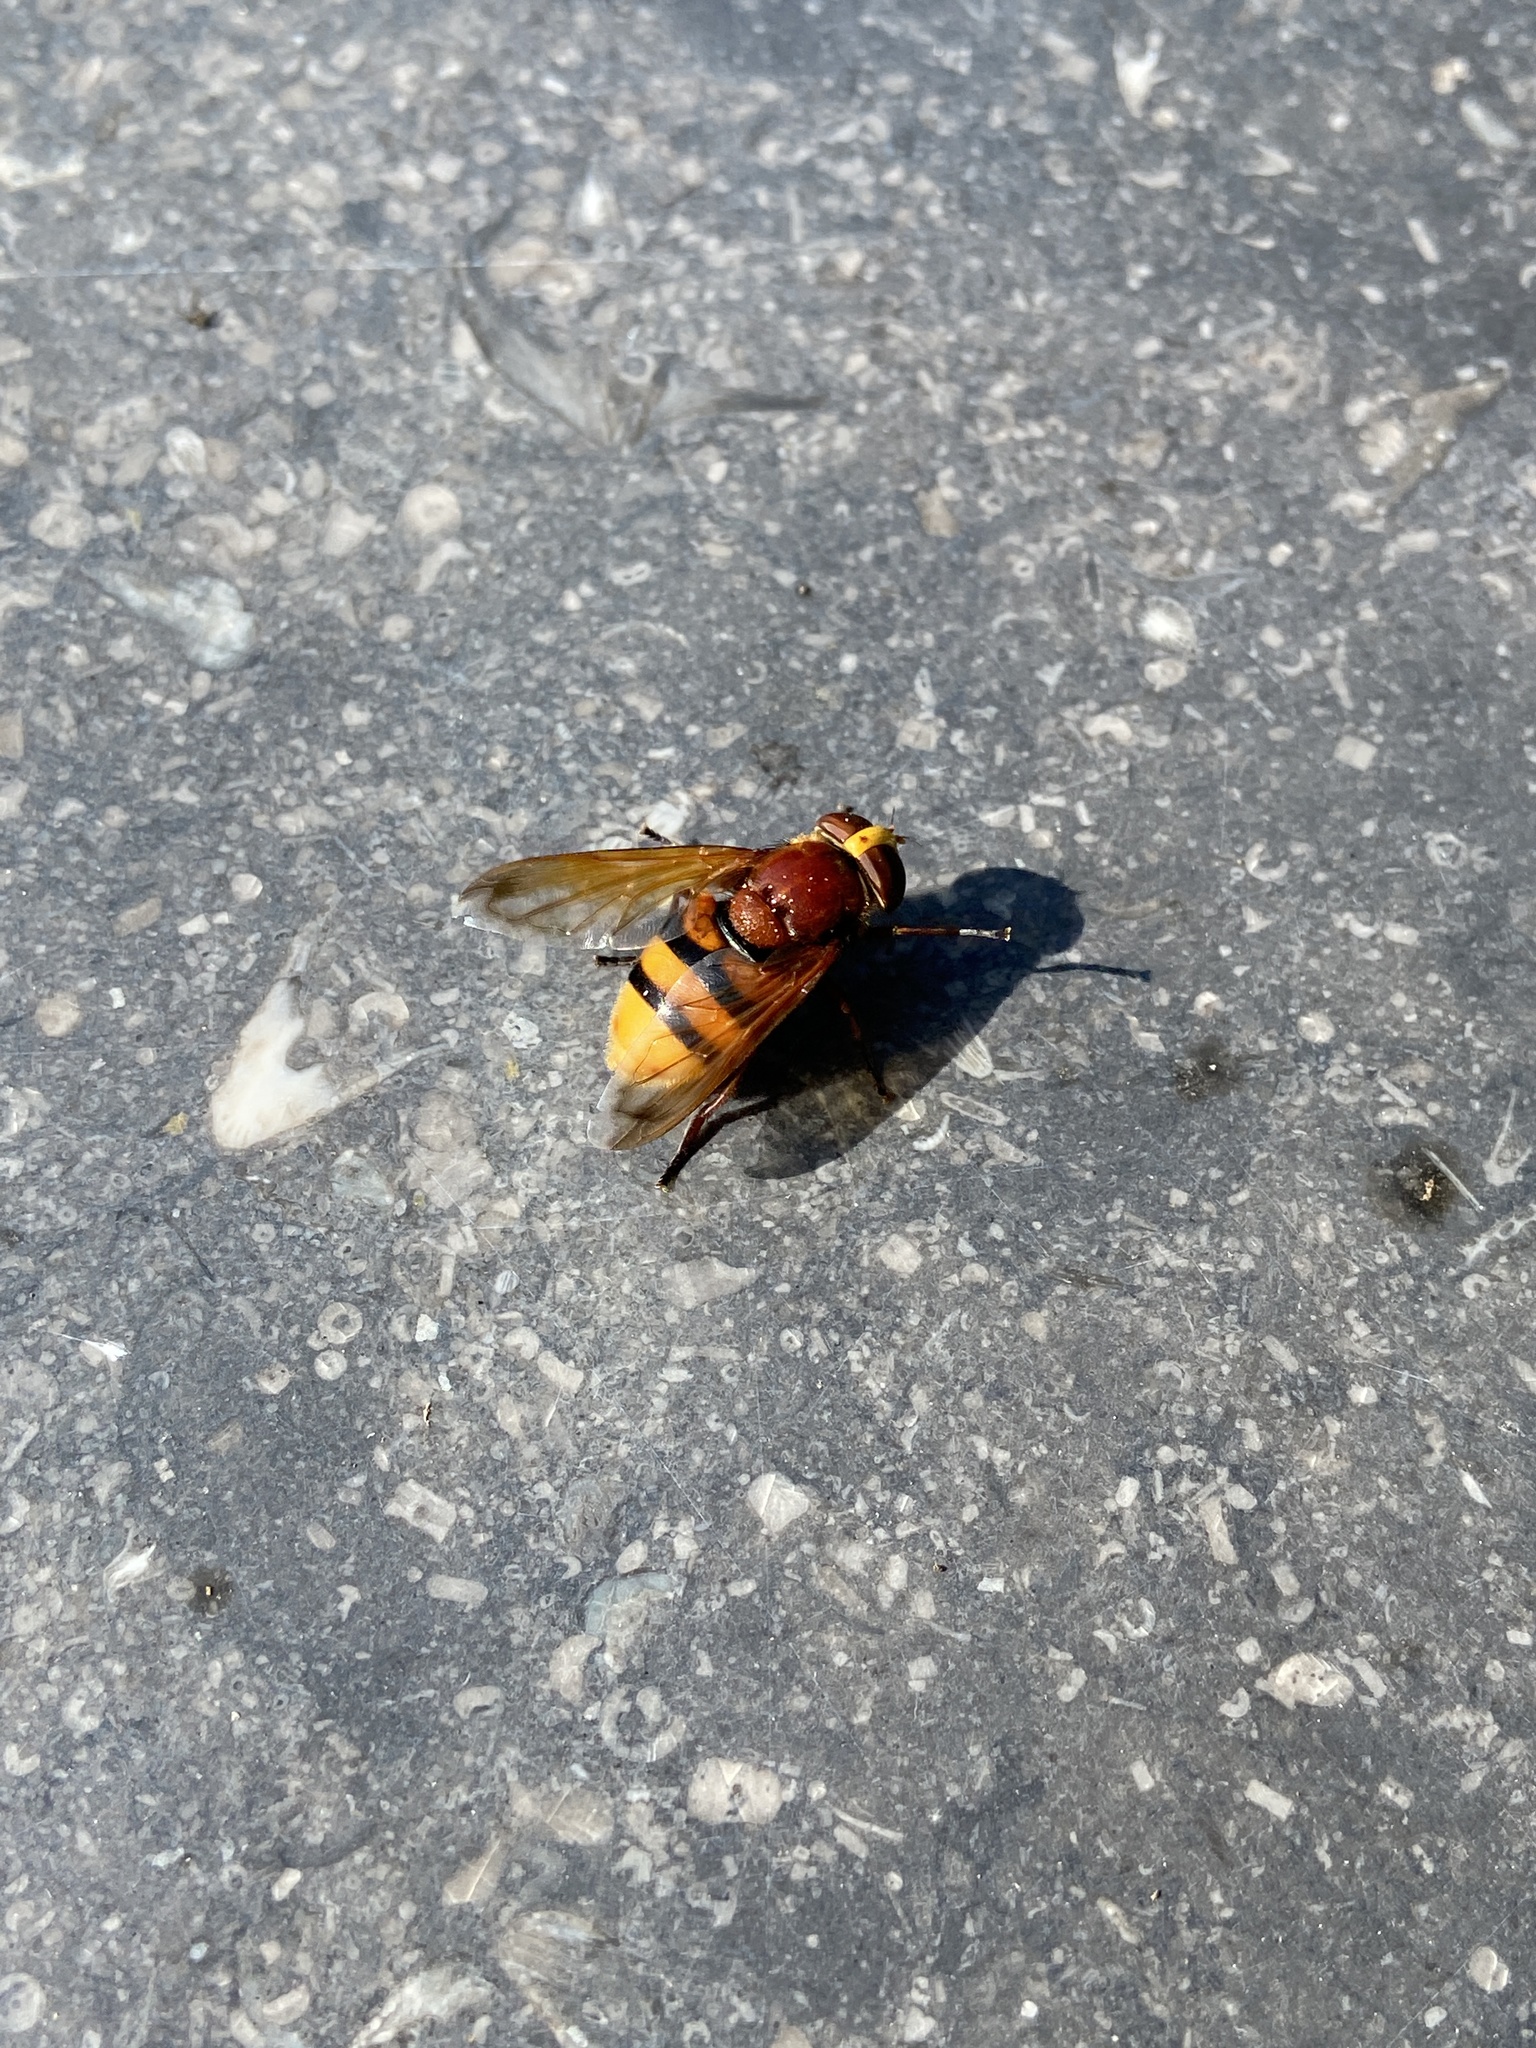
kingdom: Animalia
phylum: Arthropoda
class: Insecta
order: Diptera
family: Syrphidae
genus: Volucella
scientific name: Volucella zonaria
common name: Hornet hoverfly
